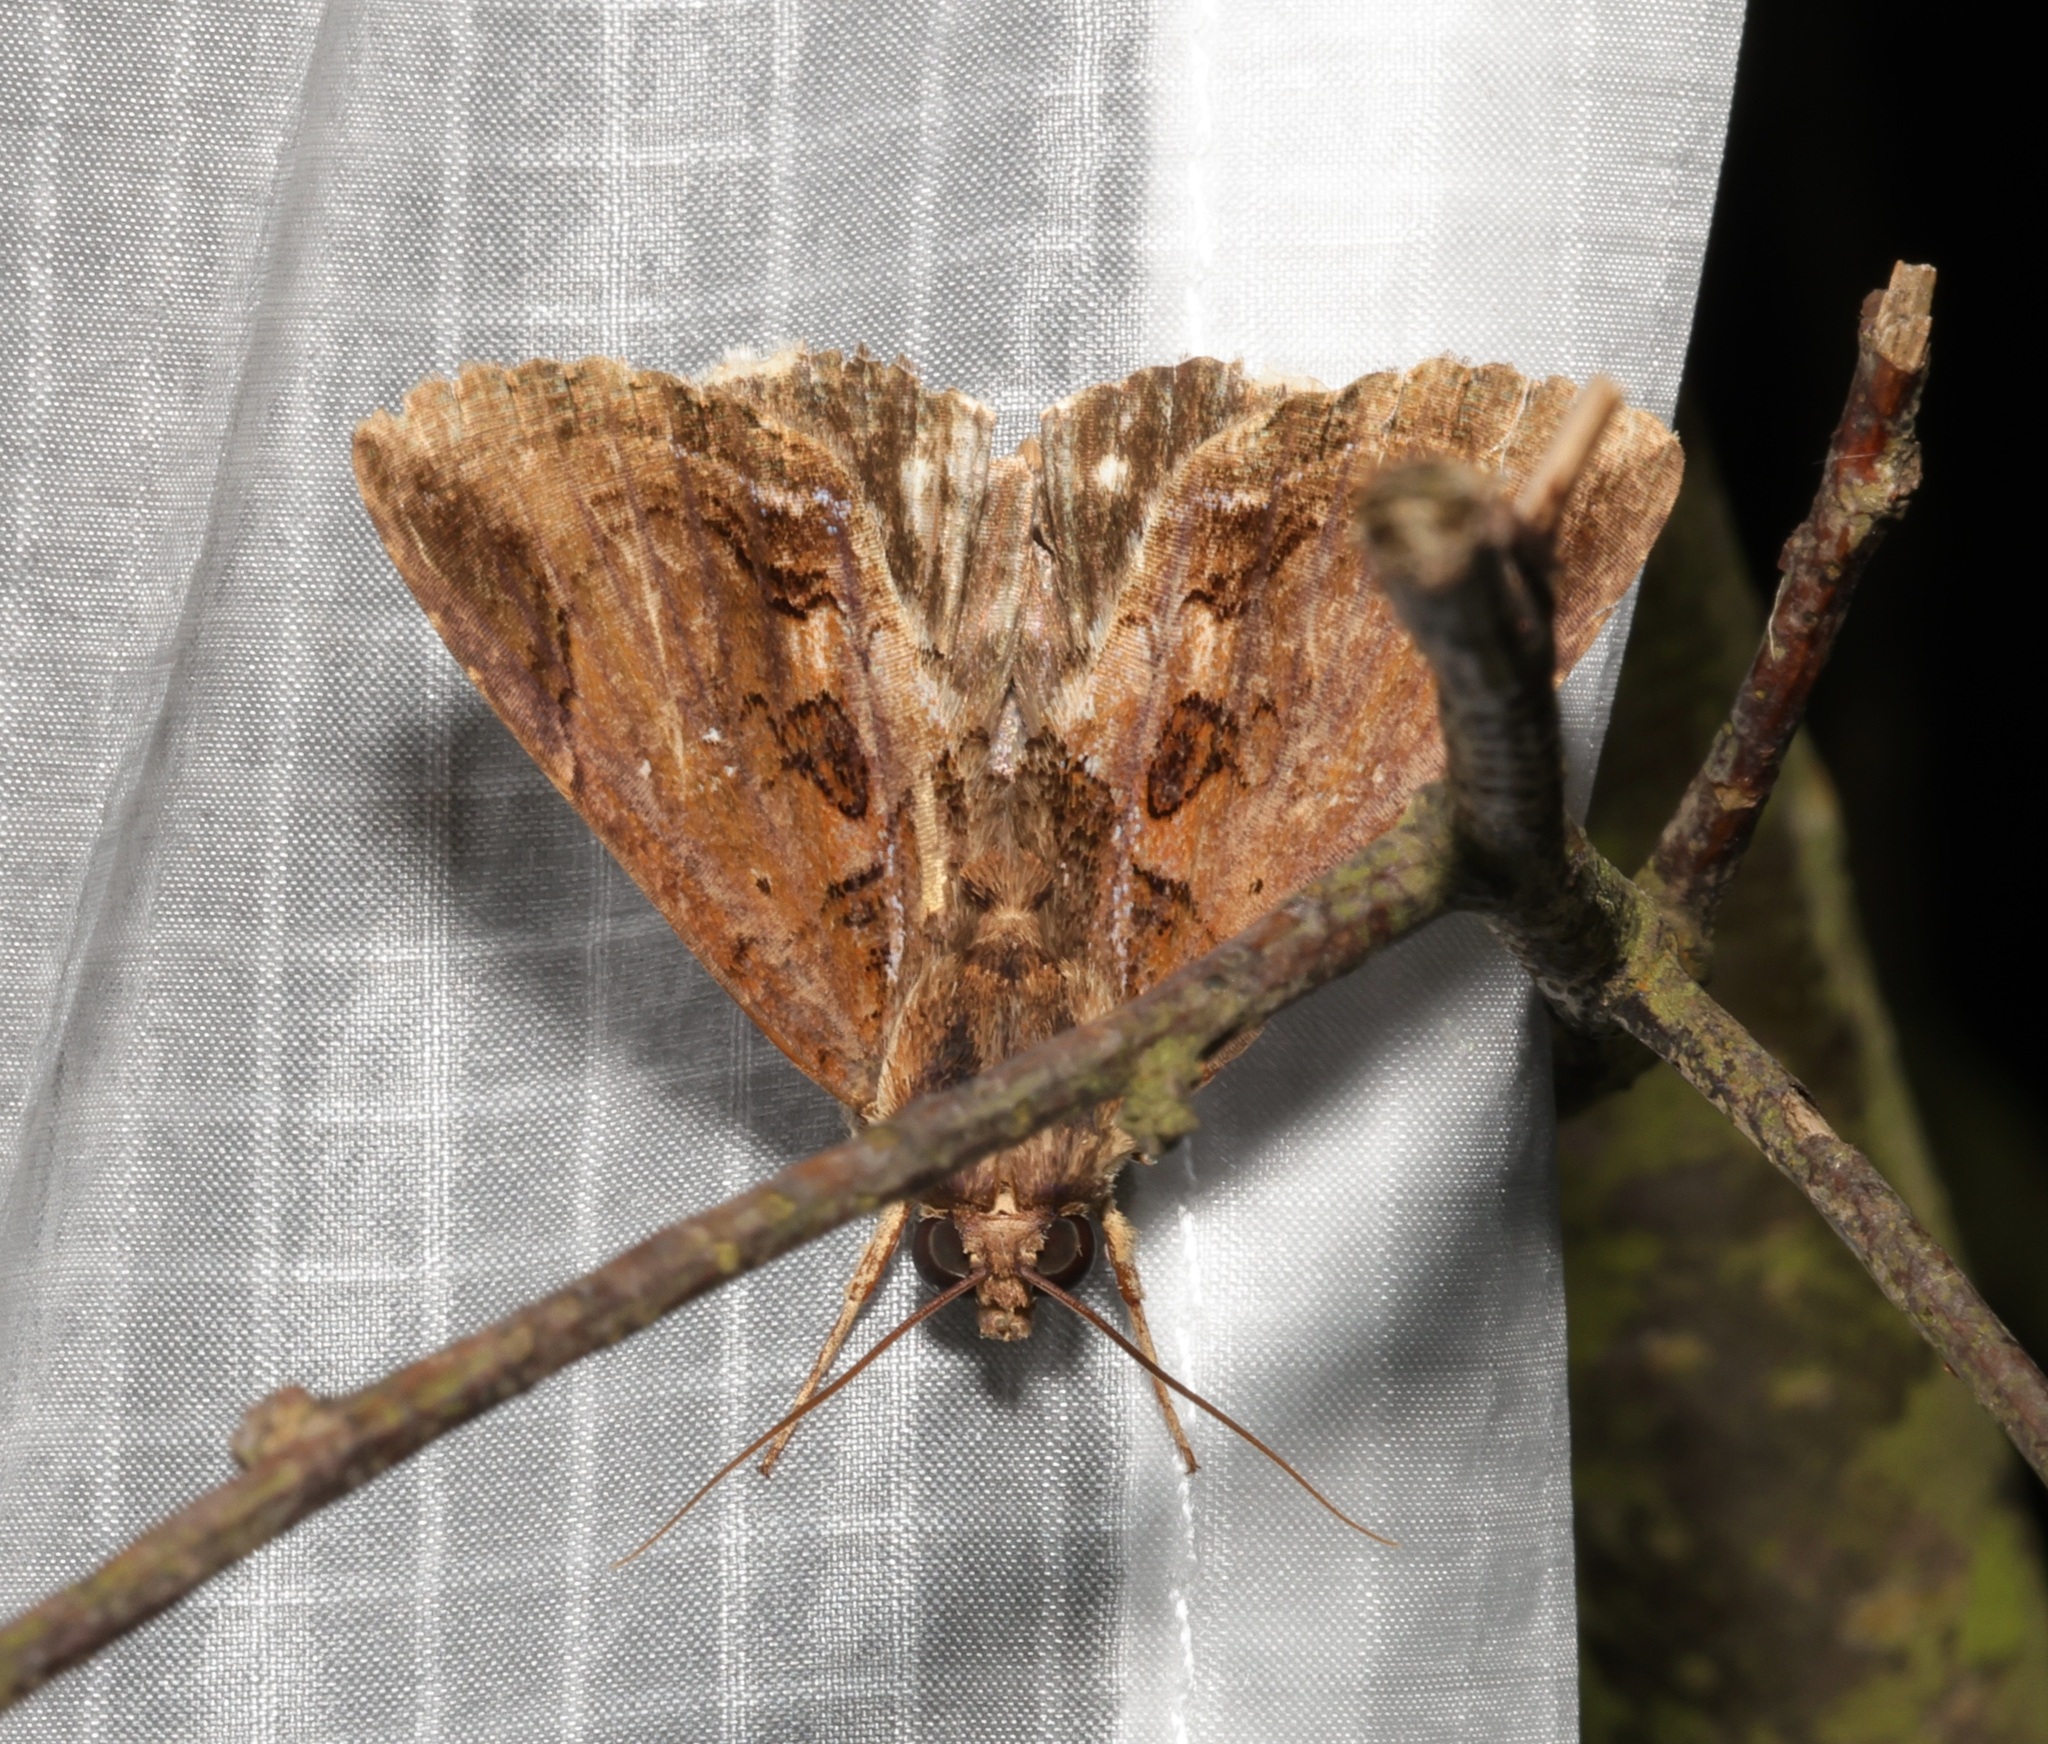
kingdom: Animalia
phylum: Arthropoda
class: Insecta
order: Lepidoptera
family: Erebidae
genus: Ercheia
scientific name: Ercheia cyllaria
